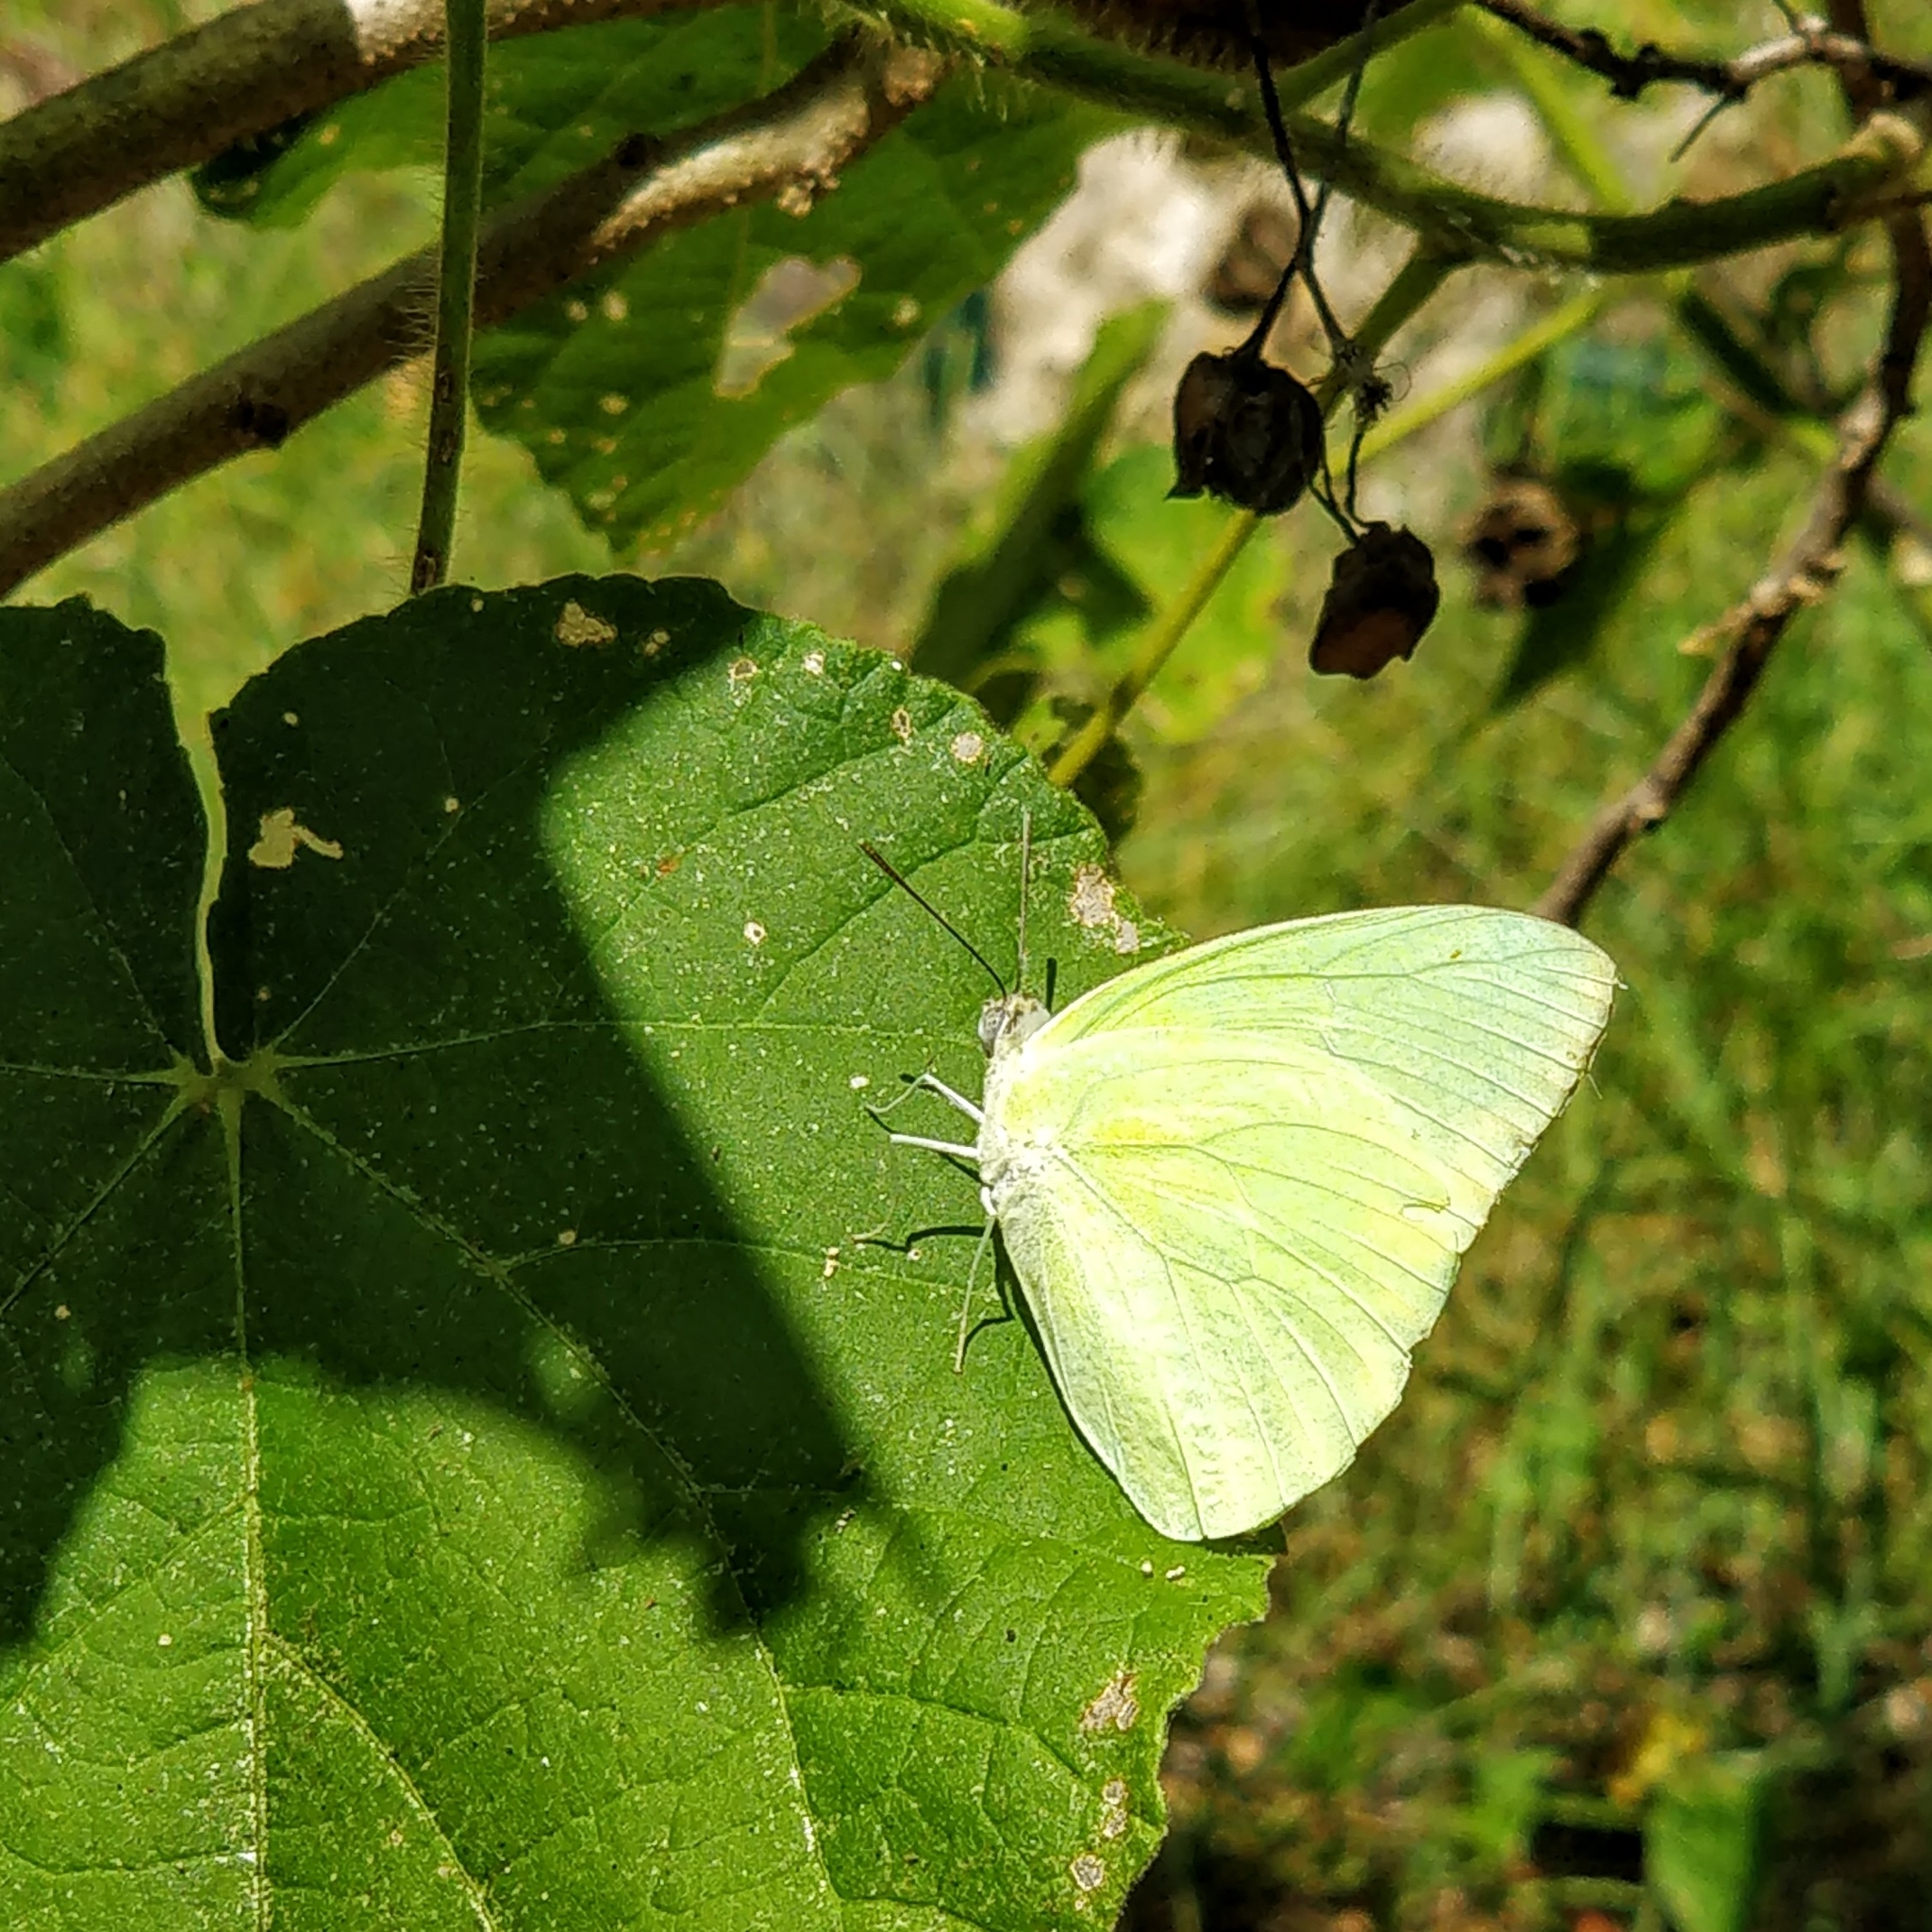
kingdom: Animalia
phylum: Arthropoda
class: Insecta
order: Lepidoptera
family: Pieridae
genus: Catopsilia
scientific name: Catopsilia pomona
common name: Common emigrant
